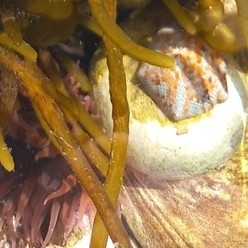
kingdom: Animalia
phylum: Echinodermata
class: Asteroidea
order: Valvatida
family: Asterinidae
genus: Parvulastra
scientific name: Parvulastra dyscrita
